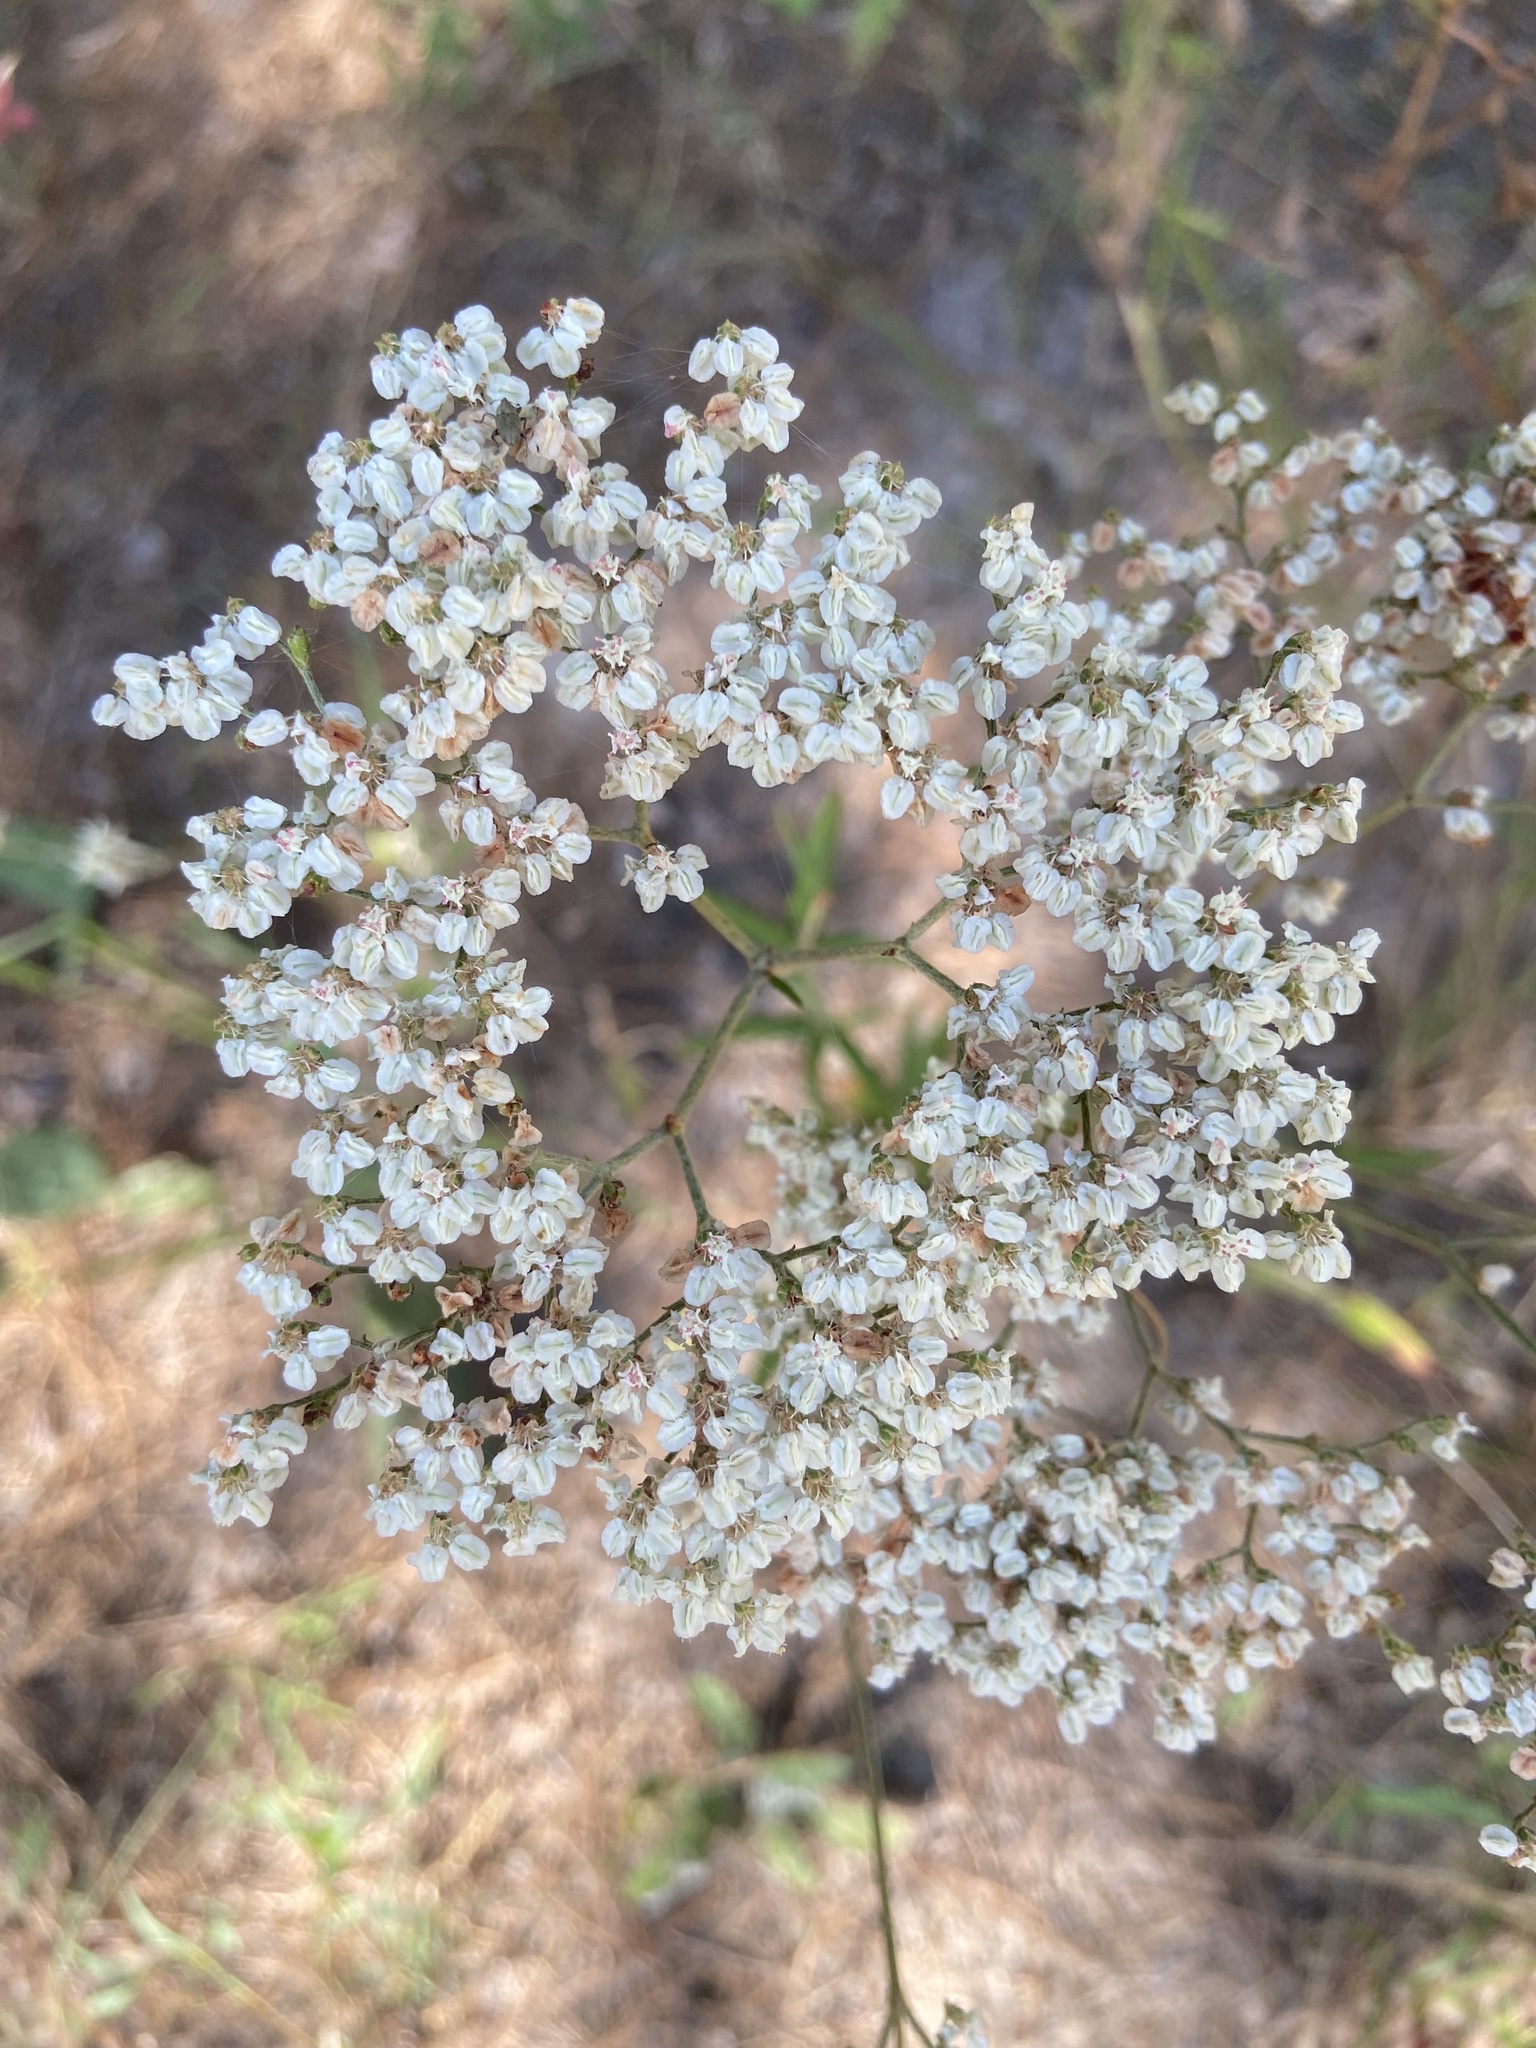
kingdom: Plantae
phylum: Tracheophyta
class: Magnoliopsida
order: Caryophyllales
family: Polygonaceae
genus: Eriogonum
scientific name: Eriogonum multiflorum
